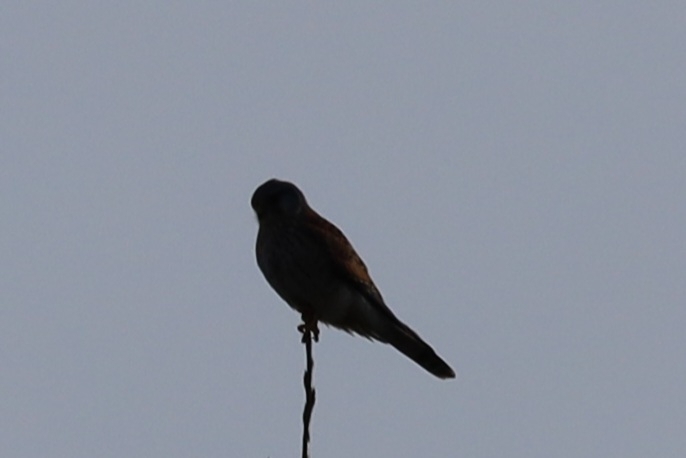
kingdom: Animalia
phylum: Chordata
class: Aves
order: Falconiformes
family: Falconidae
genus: Falco
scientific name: Falco tinnunculus
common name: Common kestrel
